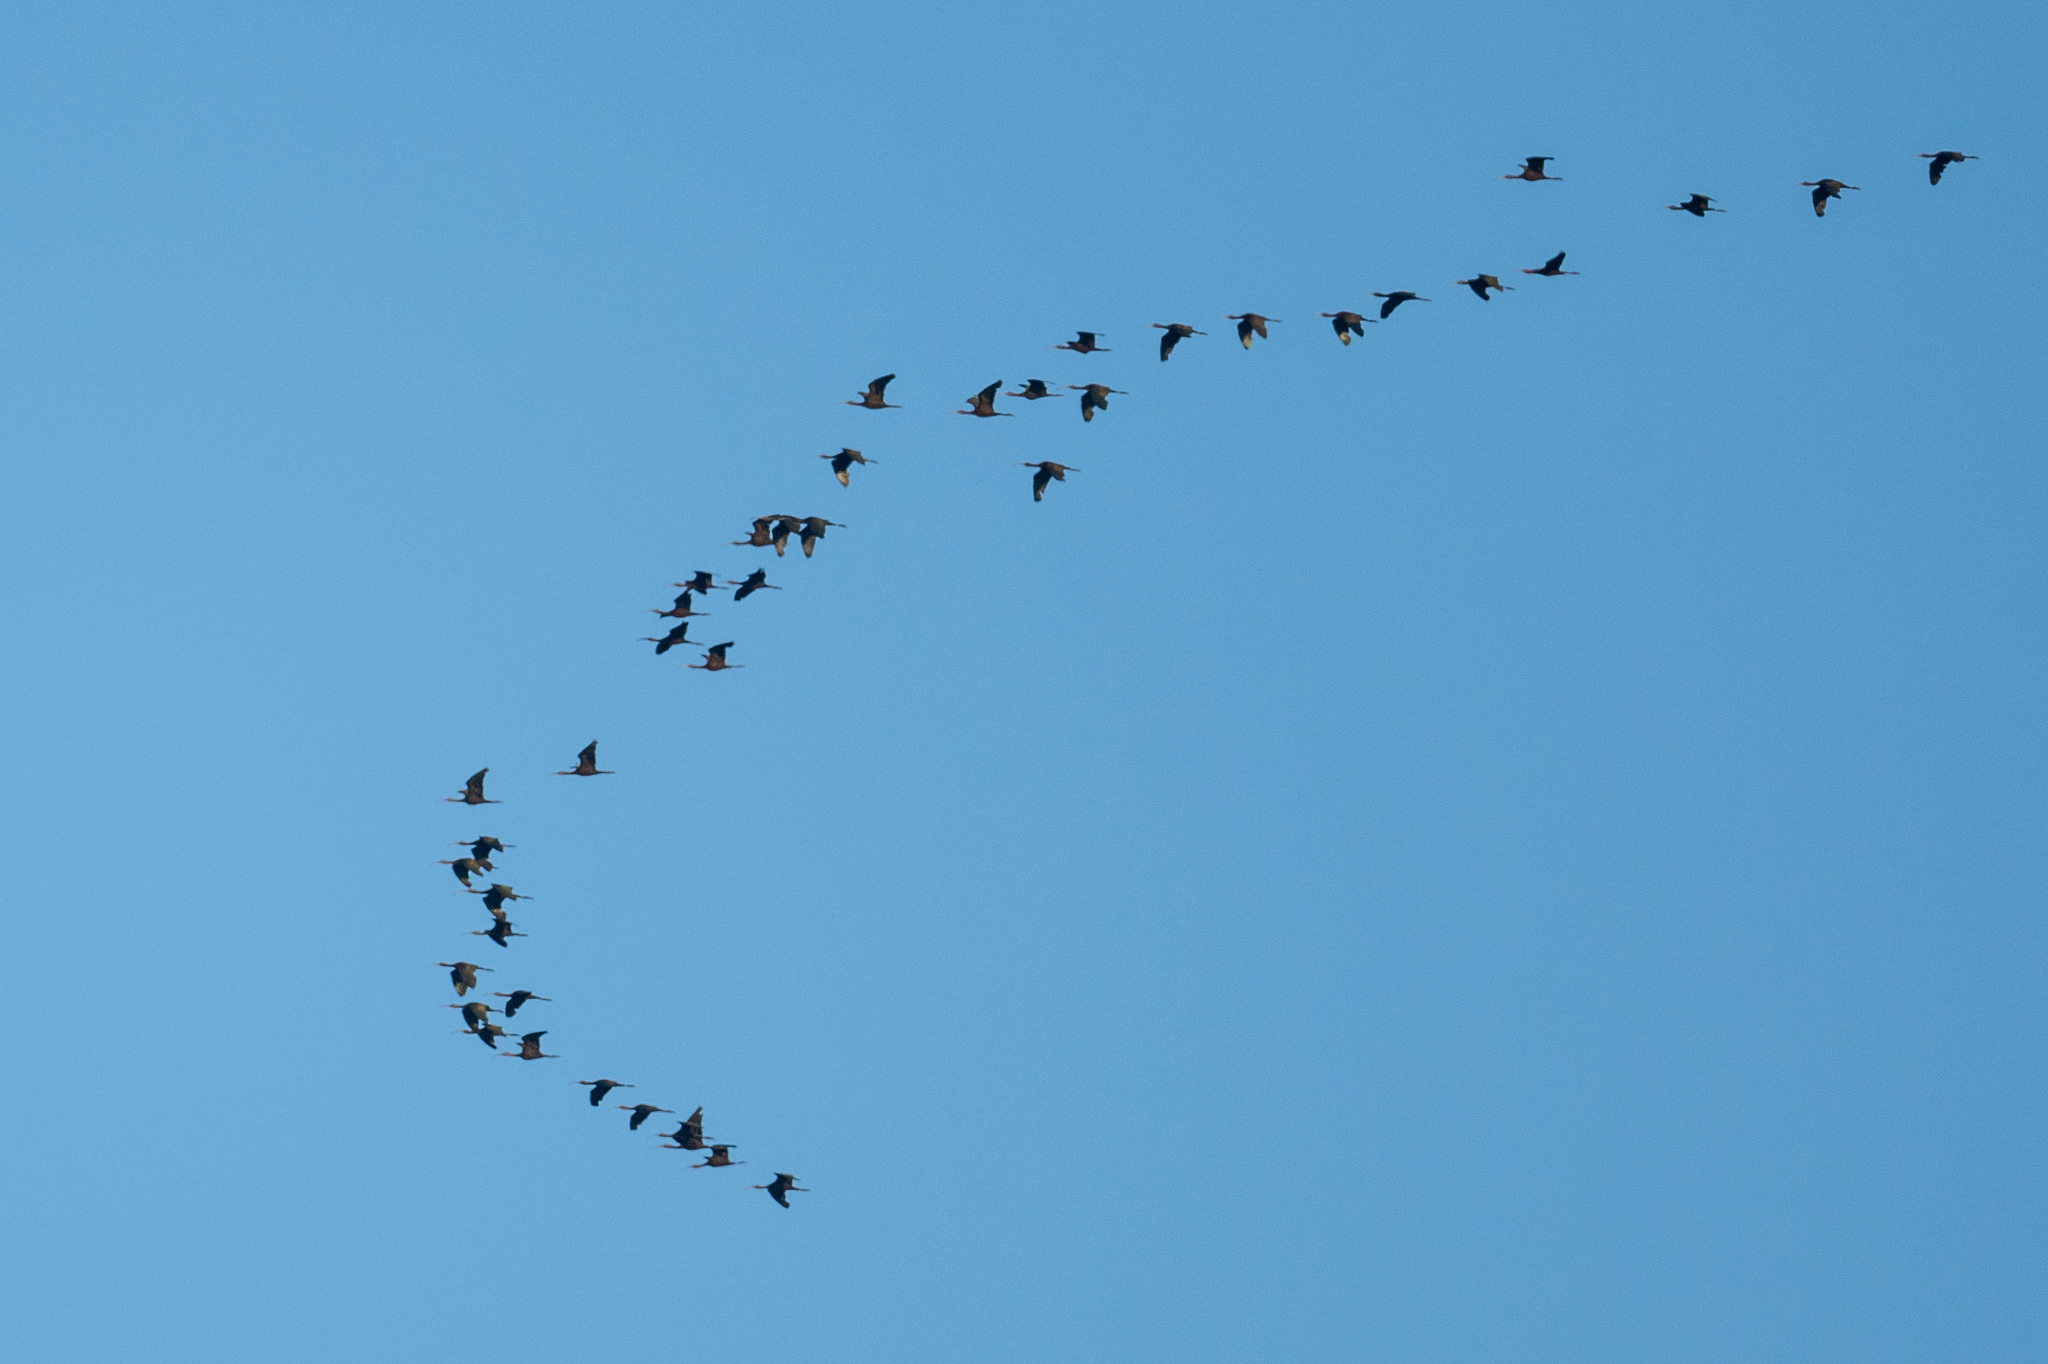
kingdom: Animalia
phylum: Chordata
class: Aves
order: Pelecaniformes
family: Threskiornithidae
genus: Plegadis
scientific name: Plegadis chihi
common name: White-faced ibis
